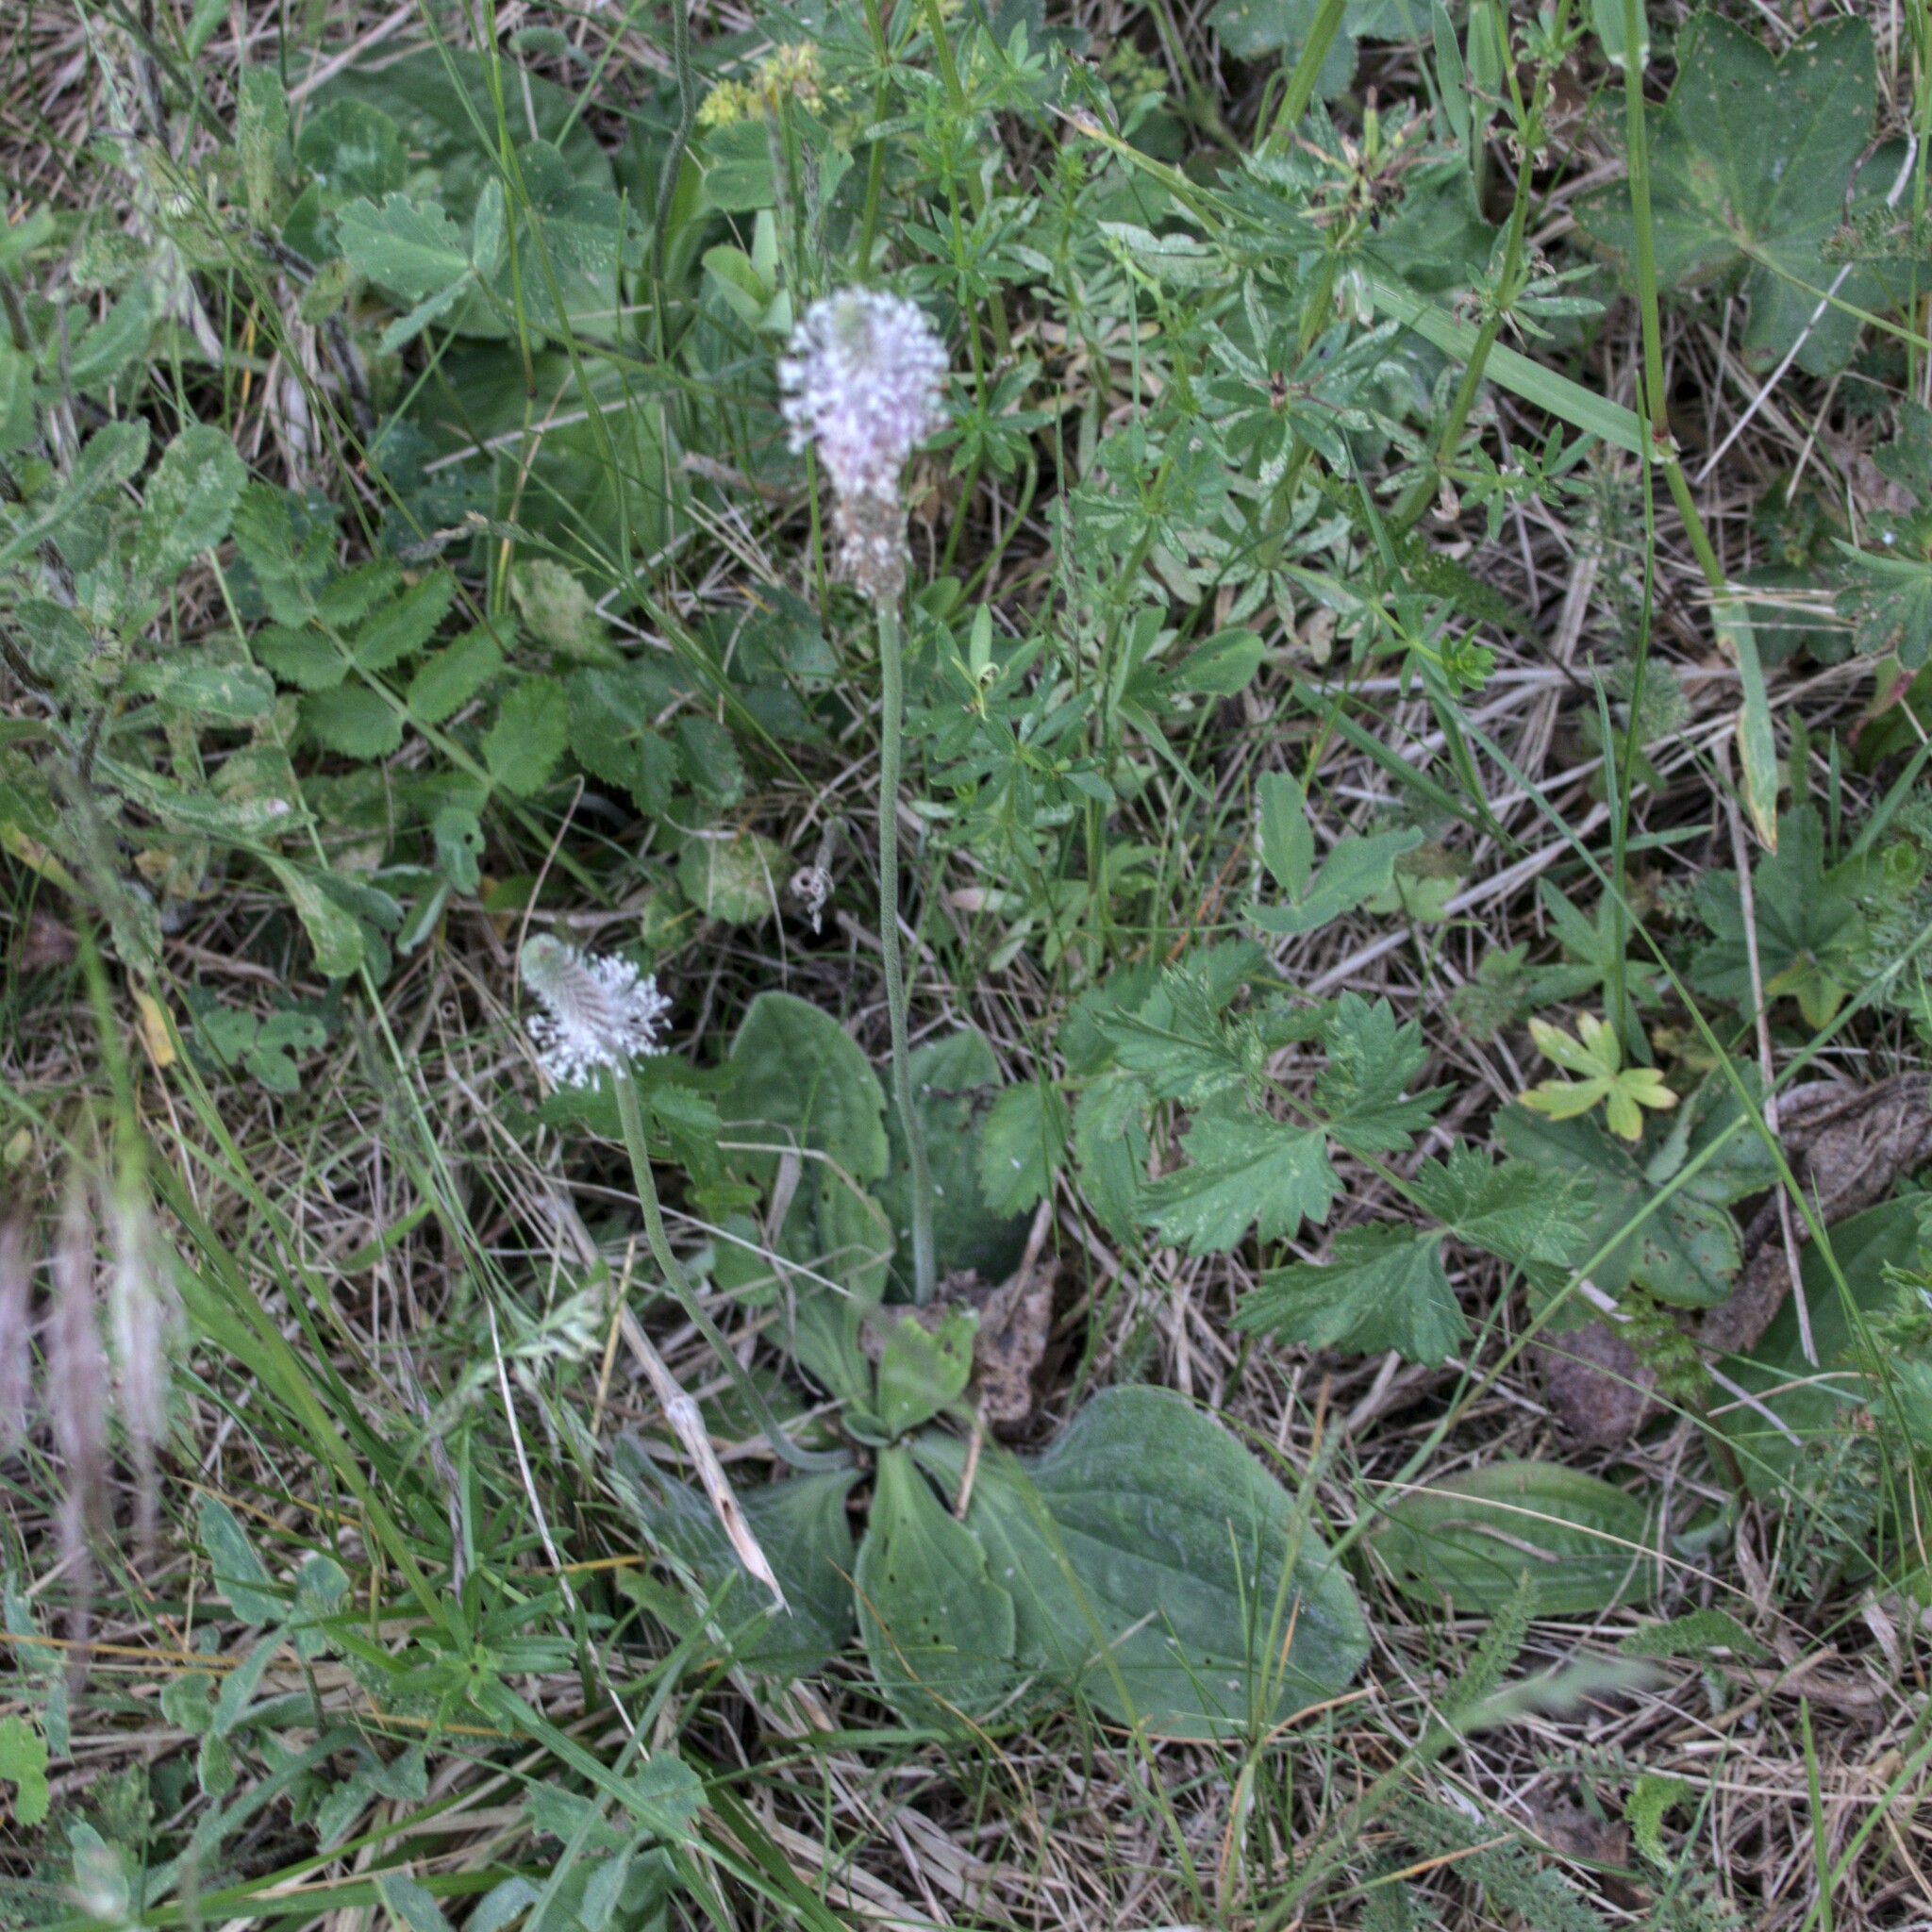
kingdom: Plantae
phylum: Tracheophyta
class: Magnoliopsida
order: Lamiales
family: Plantaginaceae
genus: Plantago
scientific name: Plantago media
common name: Hoary plantain
